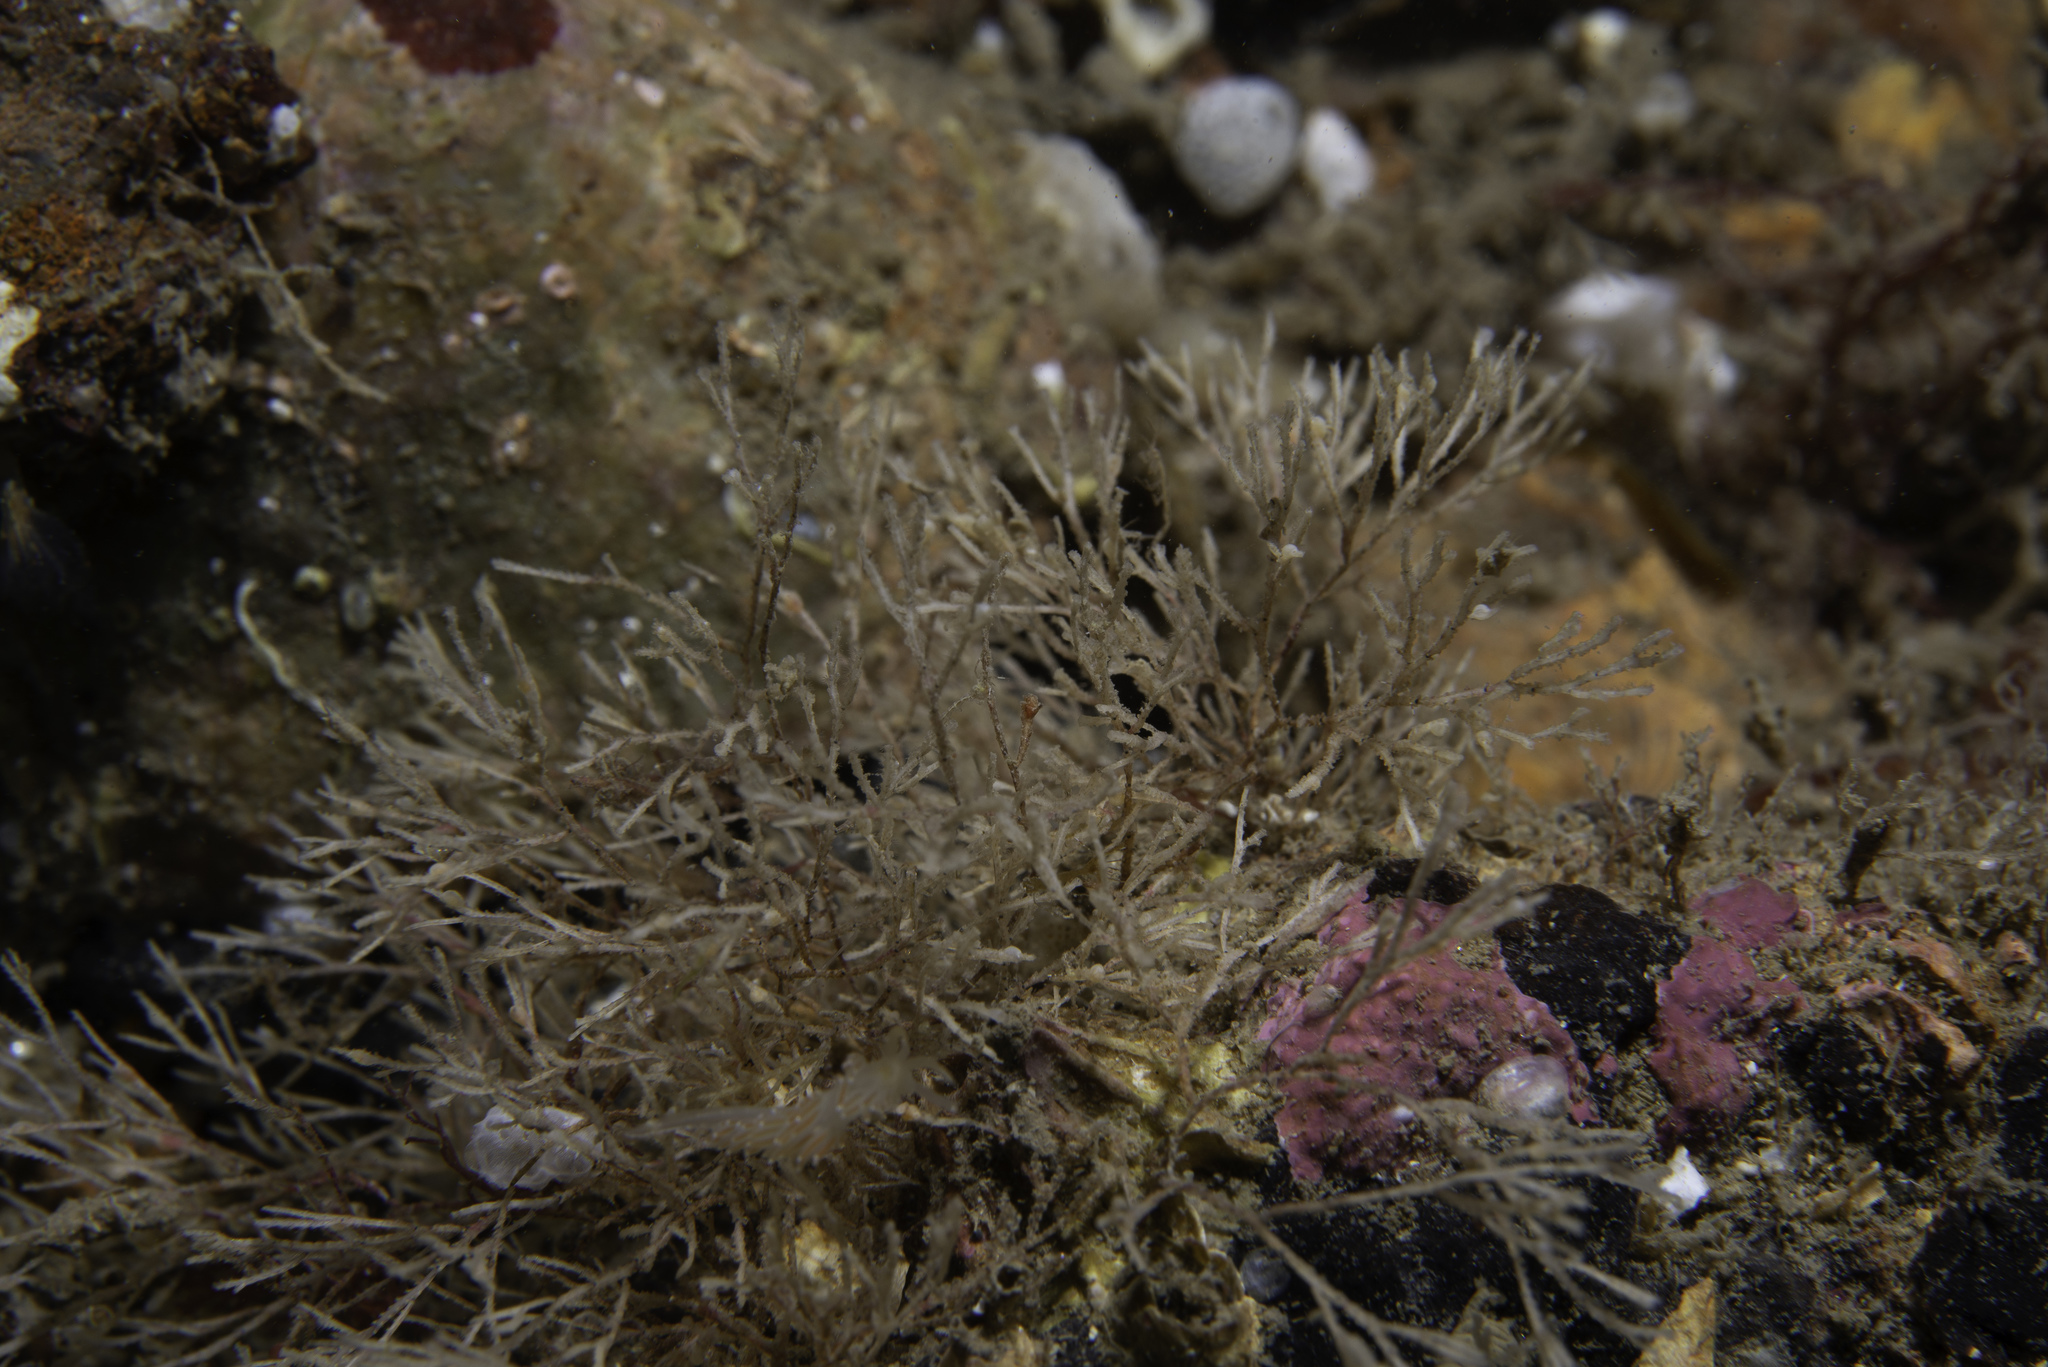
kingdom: Animalia
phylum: Bryozoa
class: Stenolaemata
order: Cyclostomatida
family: Crisiidae
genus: Crisia
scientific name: Crisia denticulata
